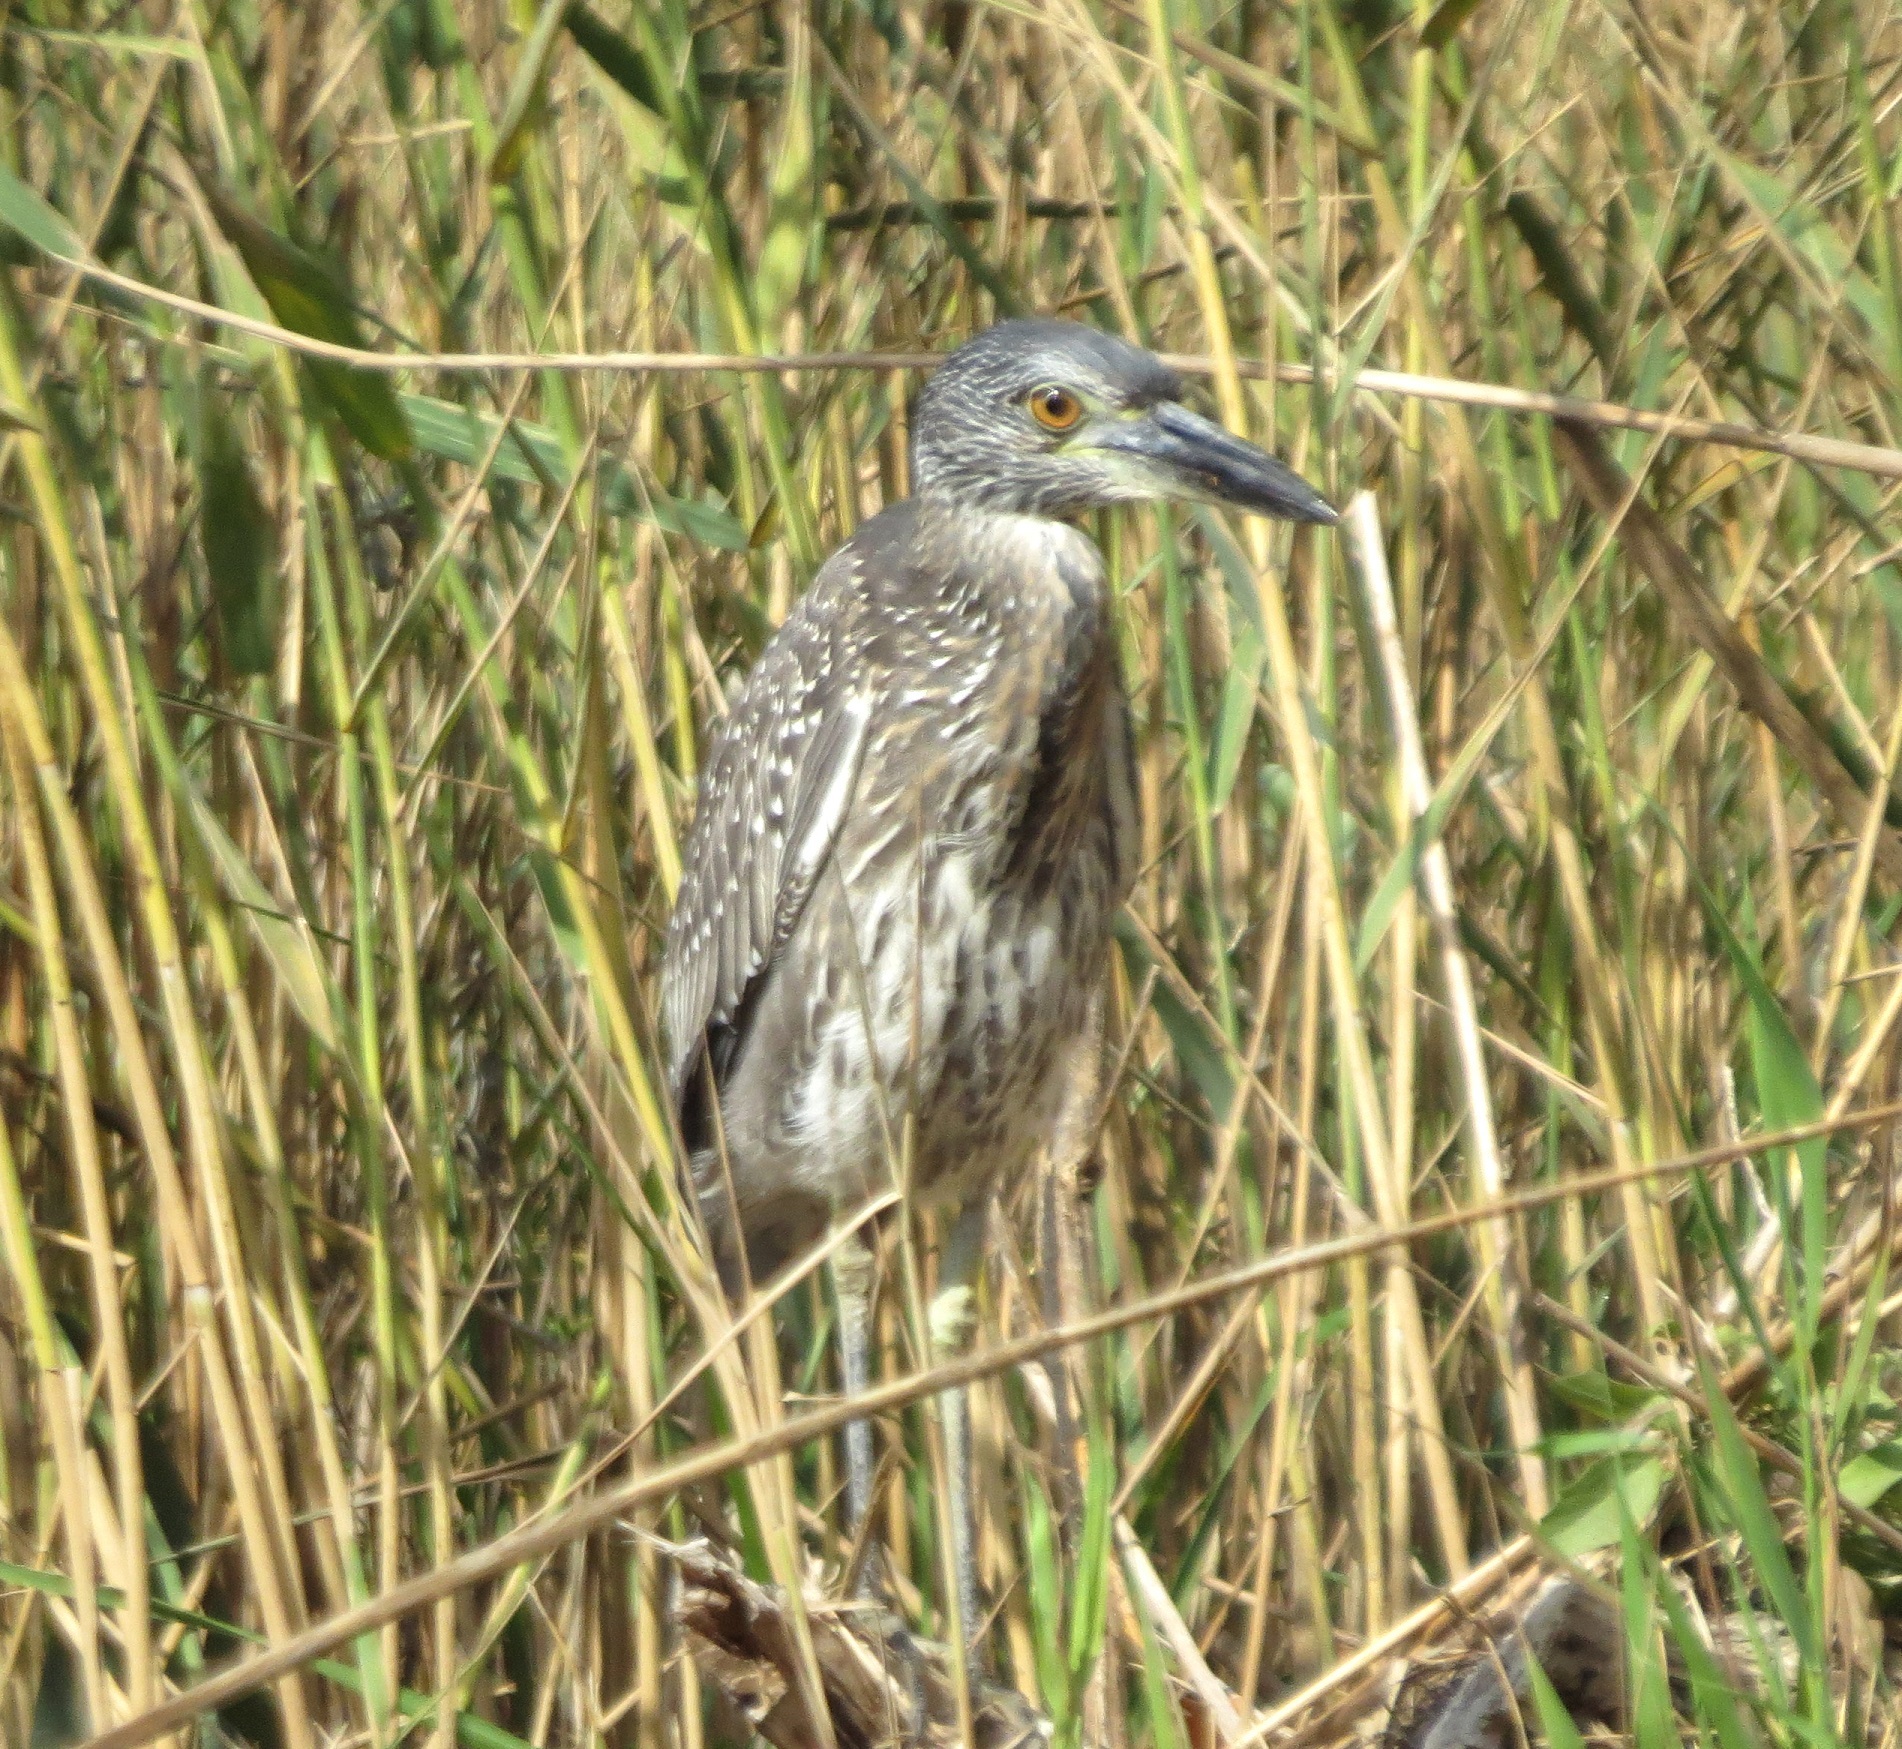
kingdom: Animalia
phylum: Chordata
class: Aves
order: Pelecaniformes
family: Ardeidae
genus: Nyctanassa
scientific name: Nyctanassa violacea
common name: Yellow-crowned night heron
